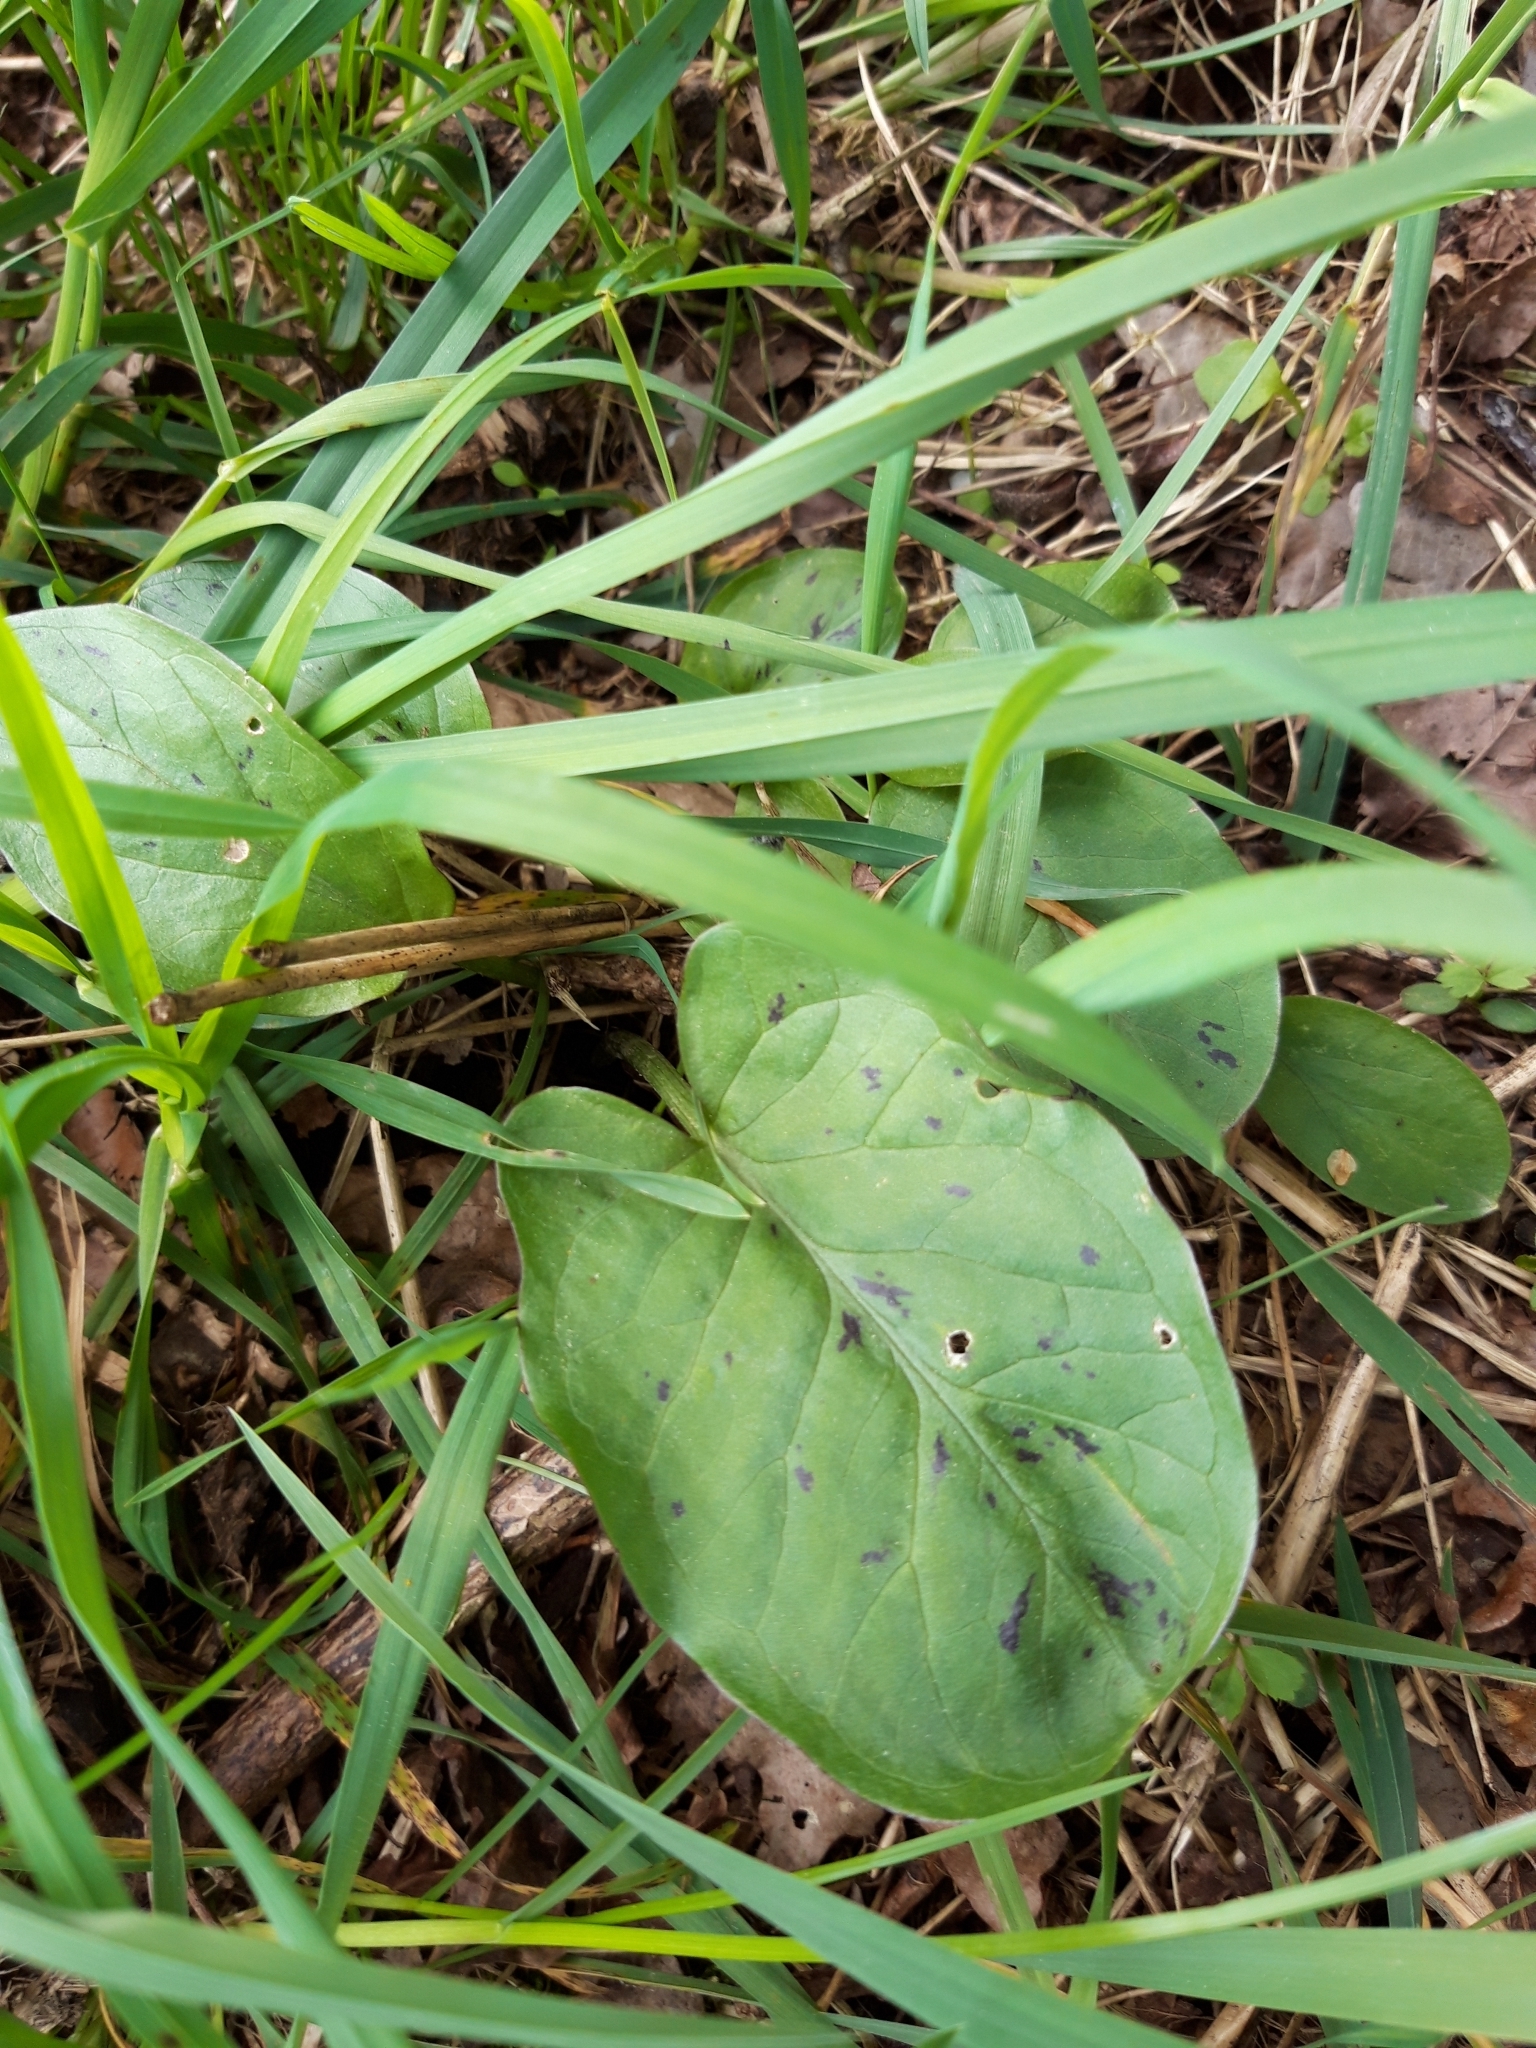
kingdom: Plantae
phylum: Tracheophyta
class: Liliopsida
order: Alismatales
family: Araceae
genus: Arum
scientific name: Arum maculatum
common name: Lords-and-ladies
